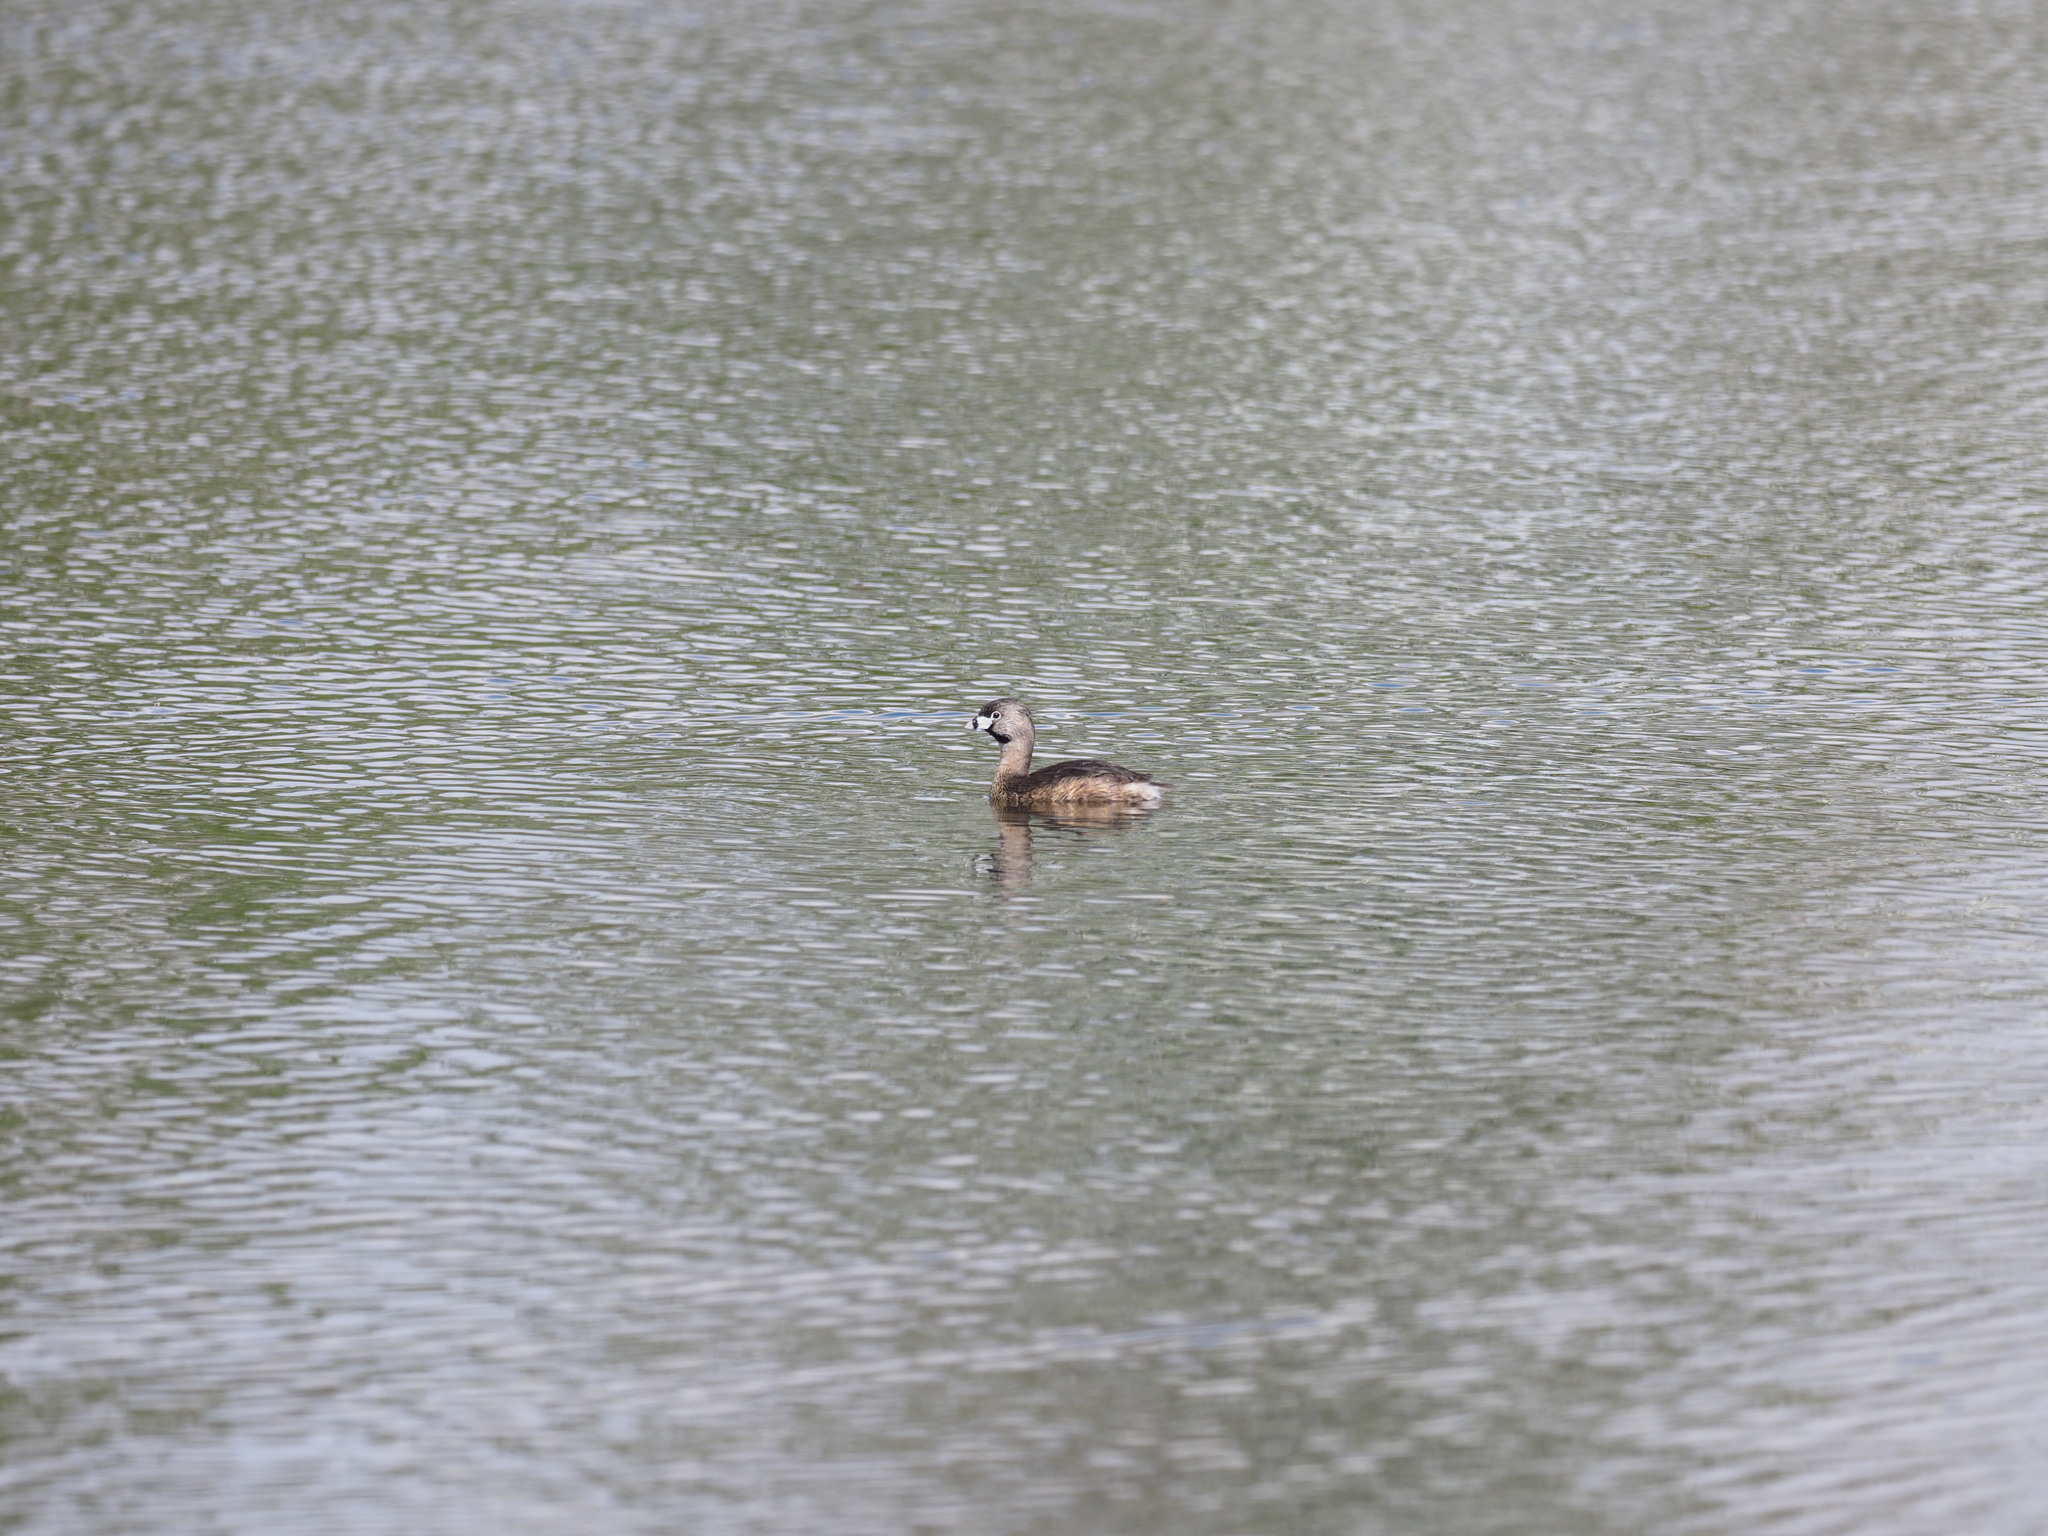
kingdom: Animalia
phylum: Chordata
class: Aves
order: Podicipediformes
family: Podicipedidae
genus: Podilymbus
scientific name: Podilymbus podiceps
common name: Pied-billed grebe
